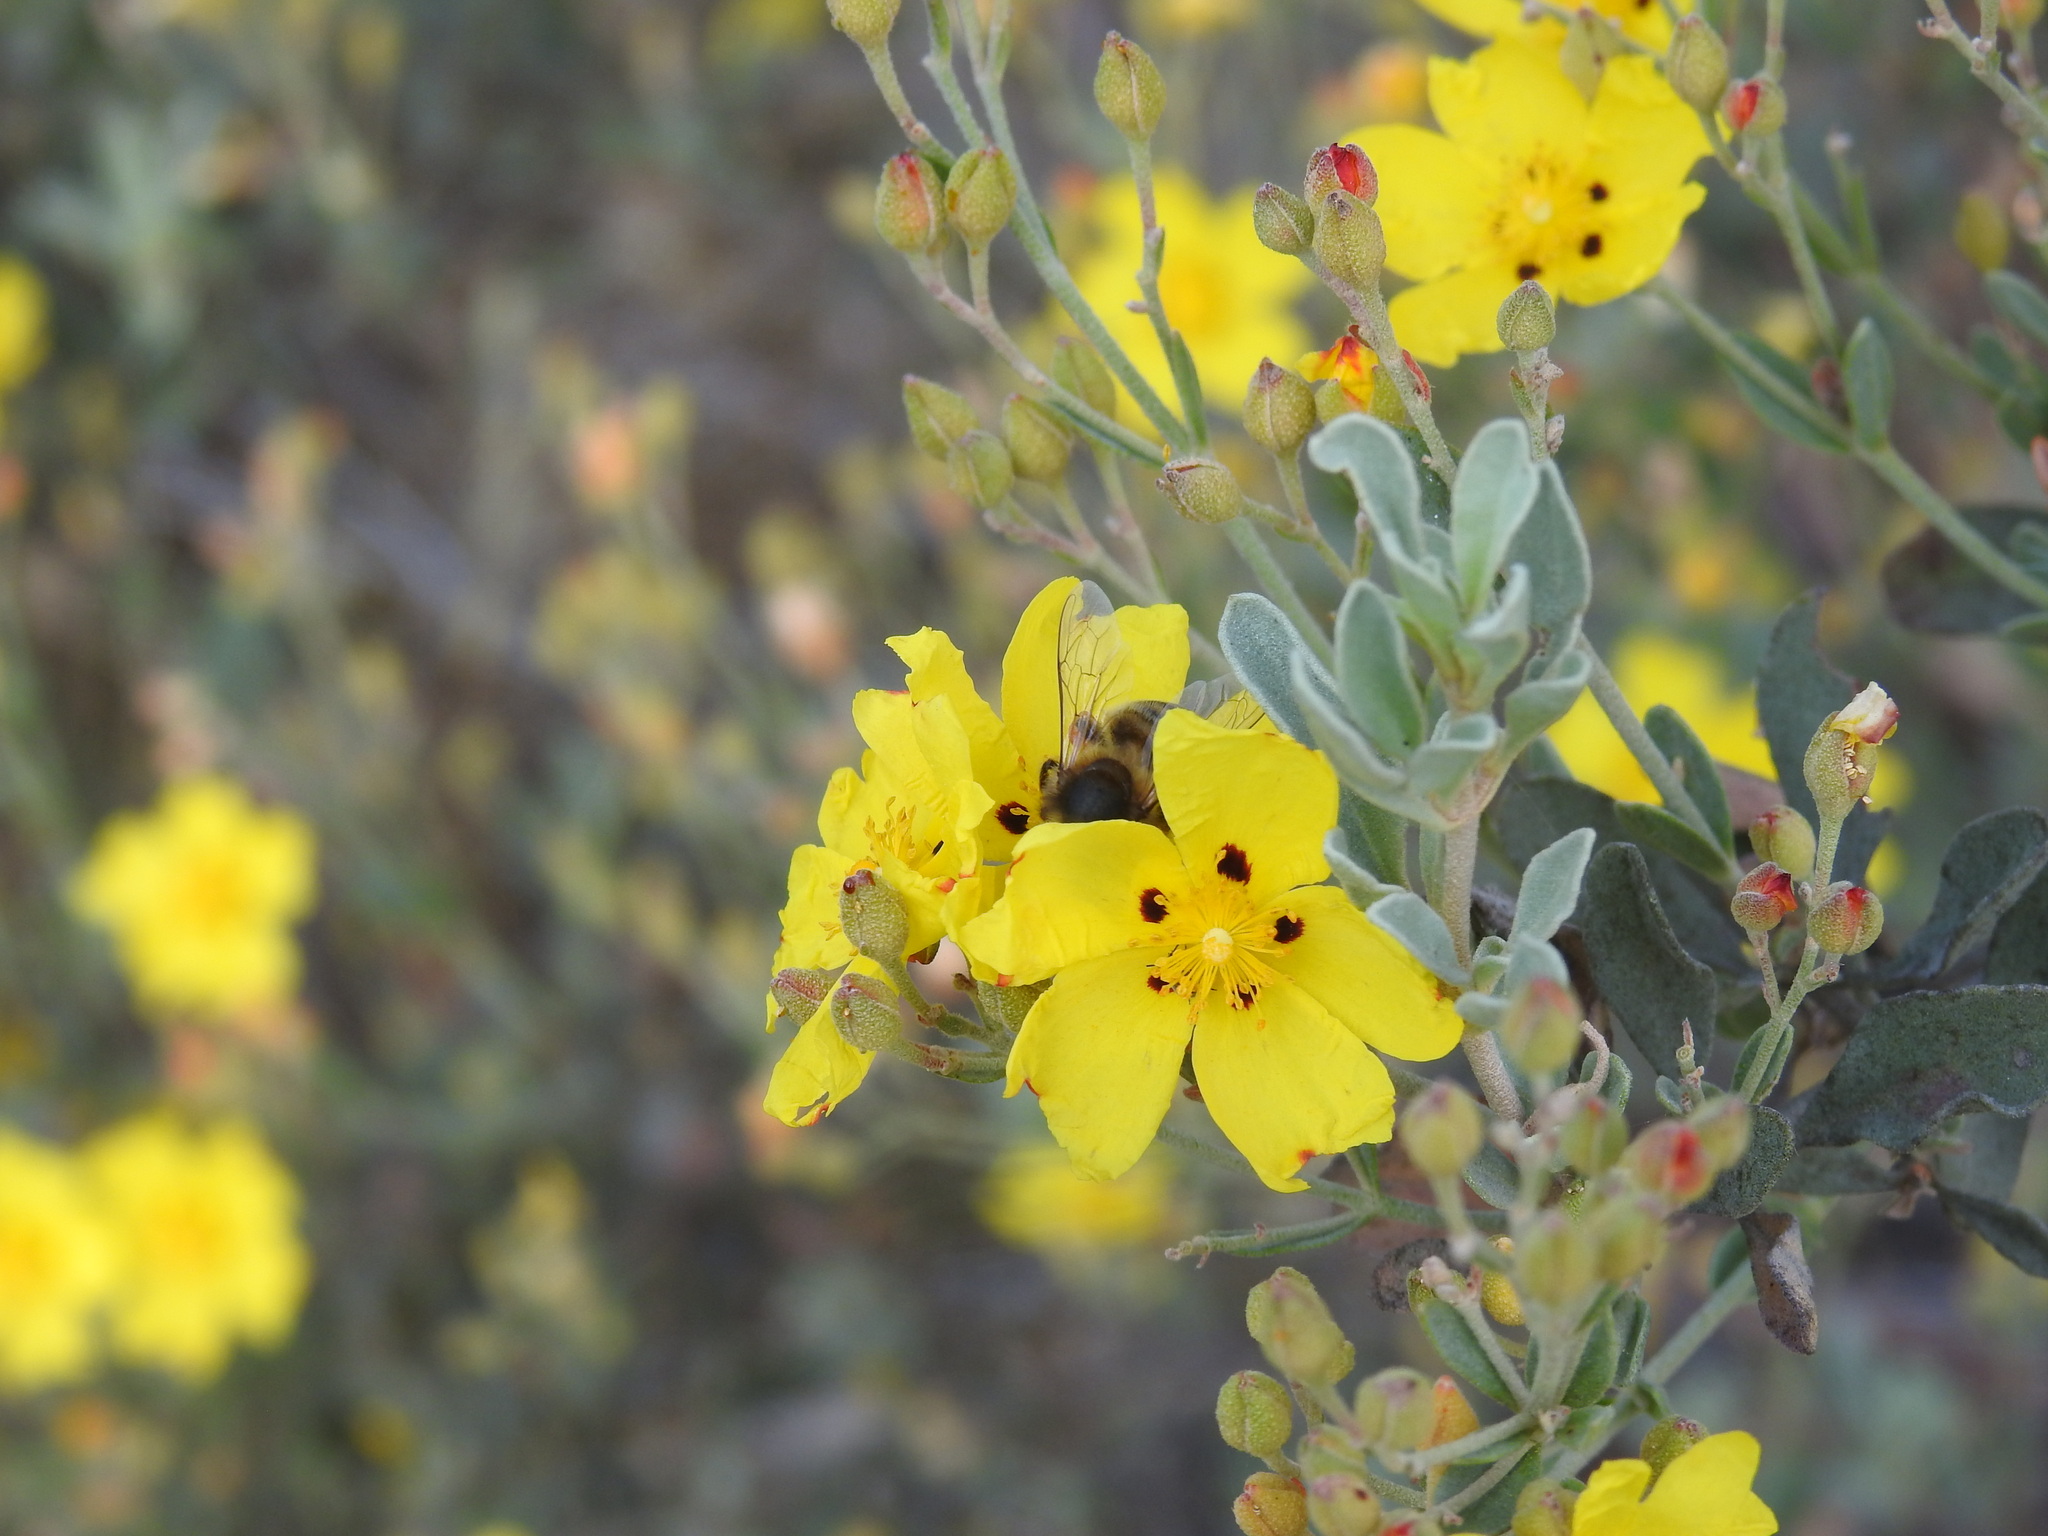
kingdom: Plantae
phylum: Tracheophyta
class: Magnoliopsida
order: Malvales
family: Cistaceae
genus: Halimium
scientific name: Halimium halimifolium
